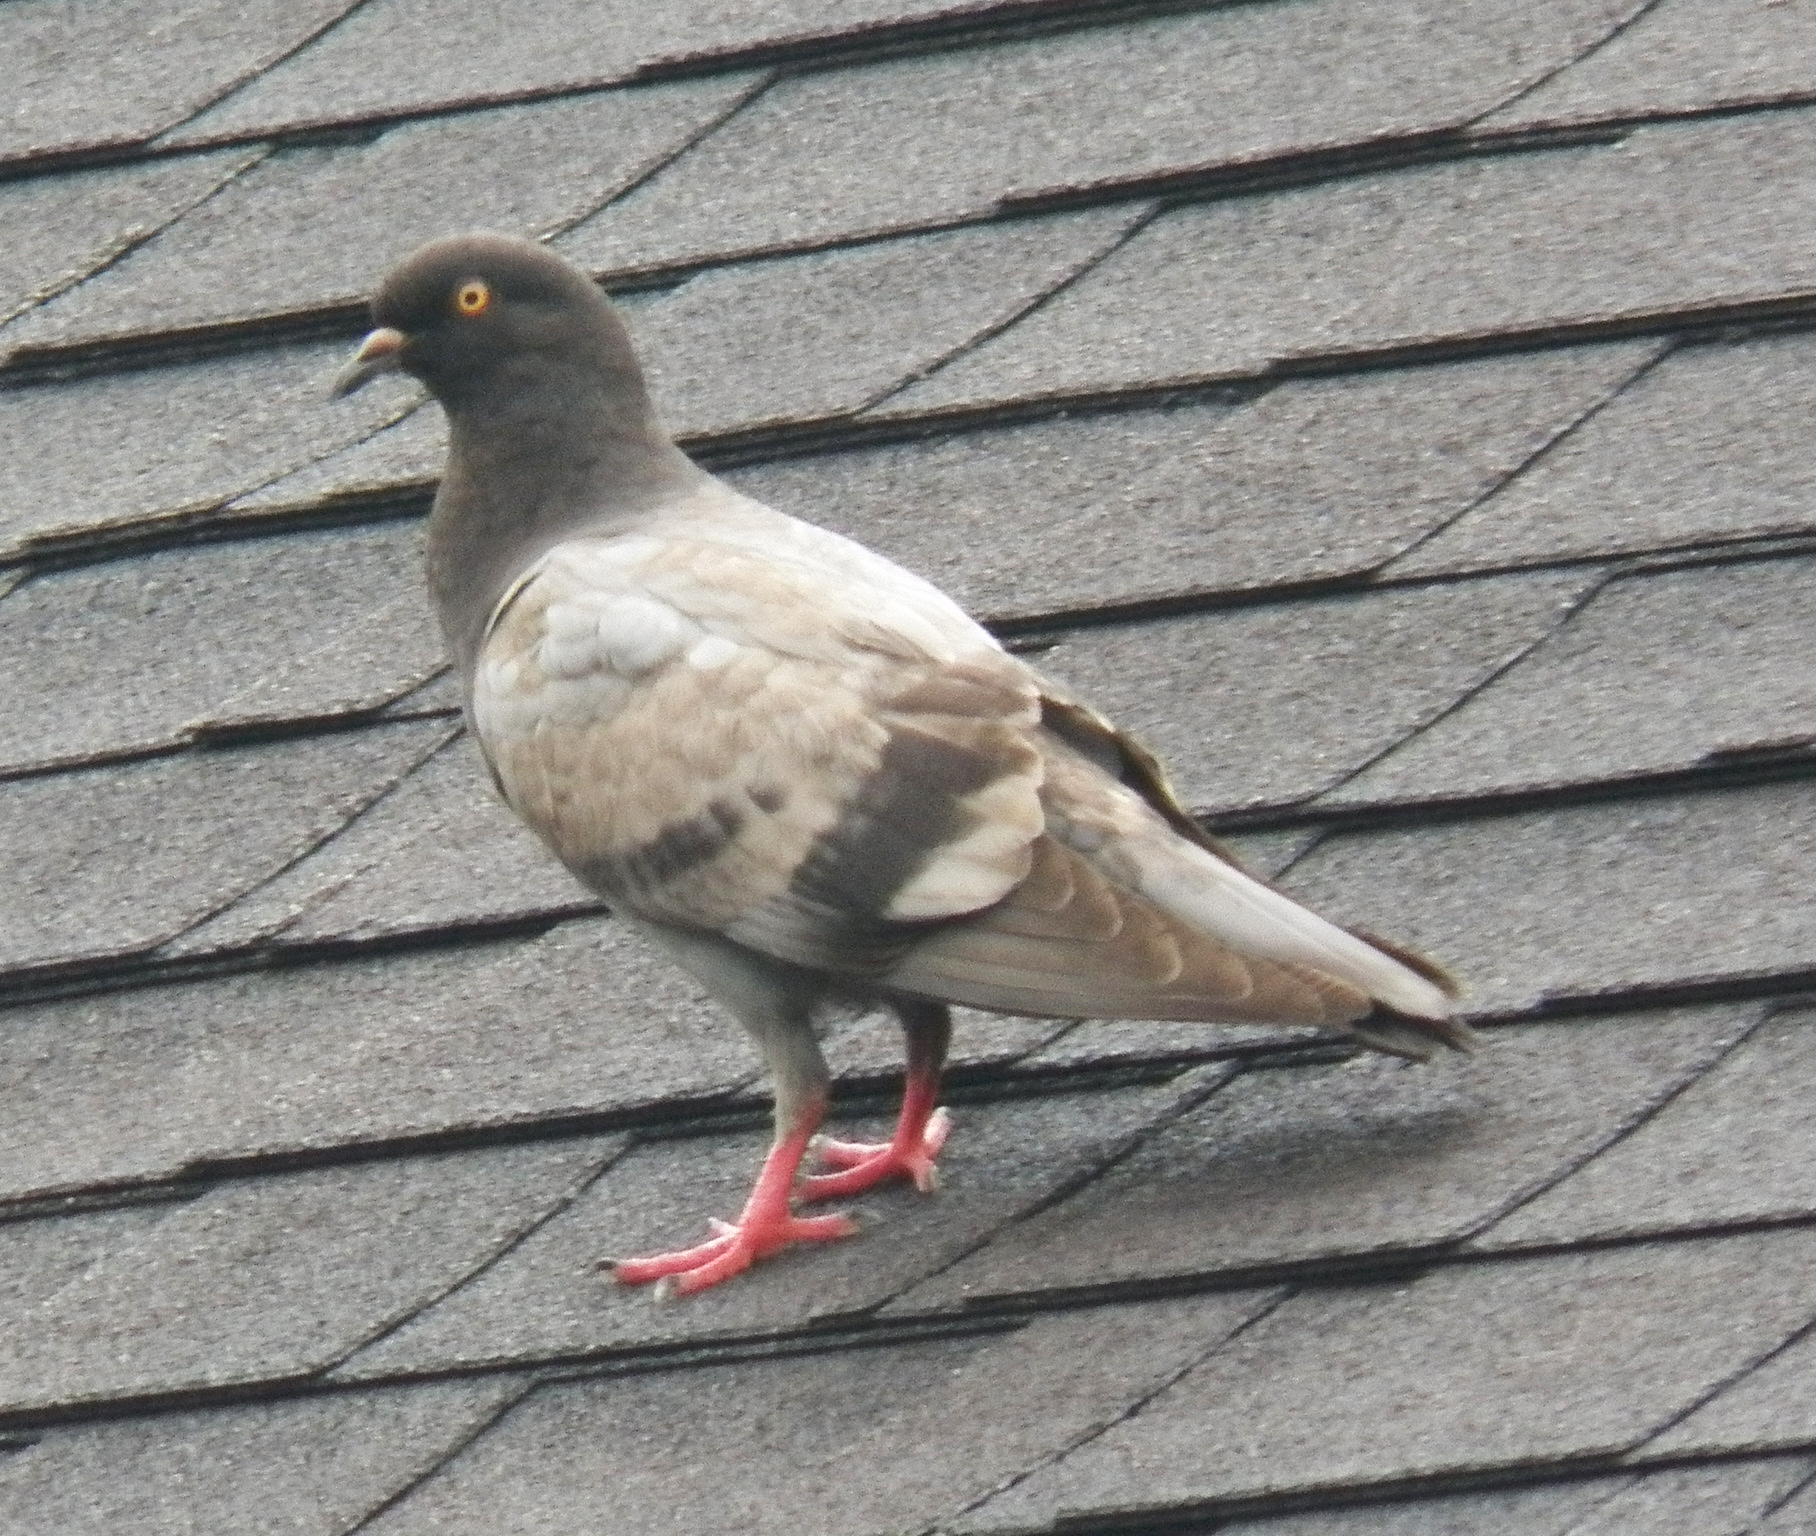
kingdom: Animalia
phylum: Chordata
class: Aves
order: Columbiformes
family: Columbidae
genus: Columba
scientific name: Columba livia
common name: Rock pigeon
